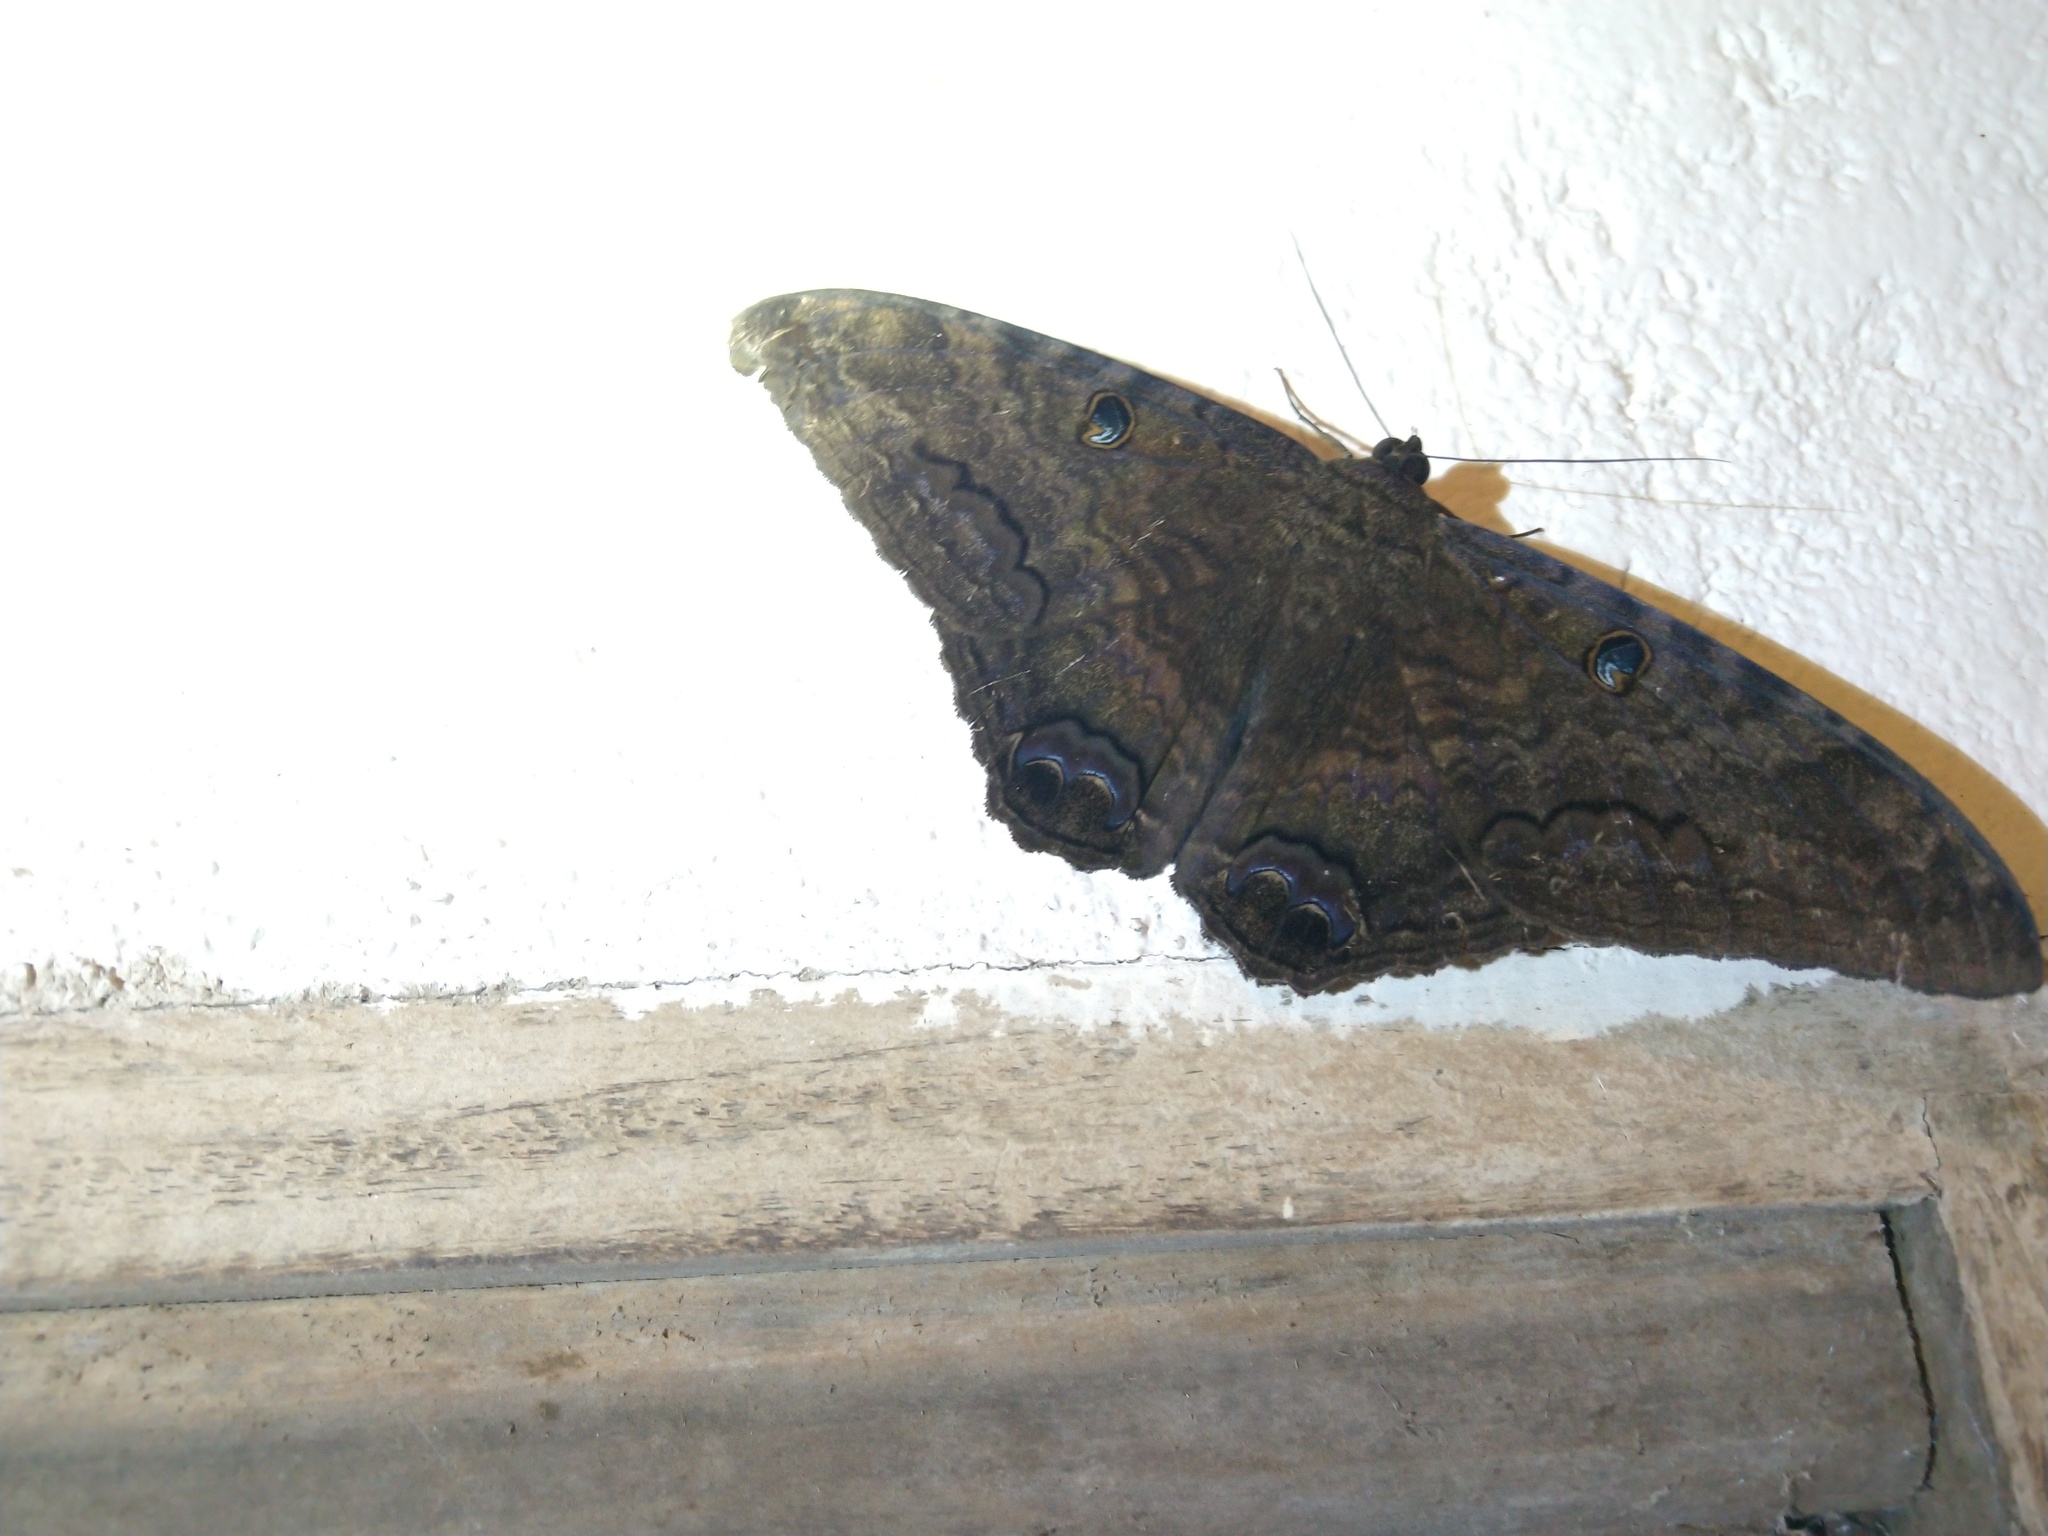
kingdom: Animalia
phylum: Arthropoda
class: Insecta
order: Lepidoptera
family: Erebidae
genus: Ascalapha
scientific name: Ascalapha odorata
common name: Black witch
